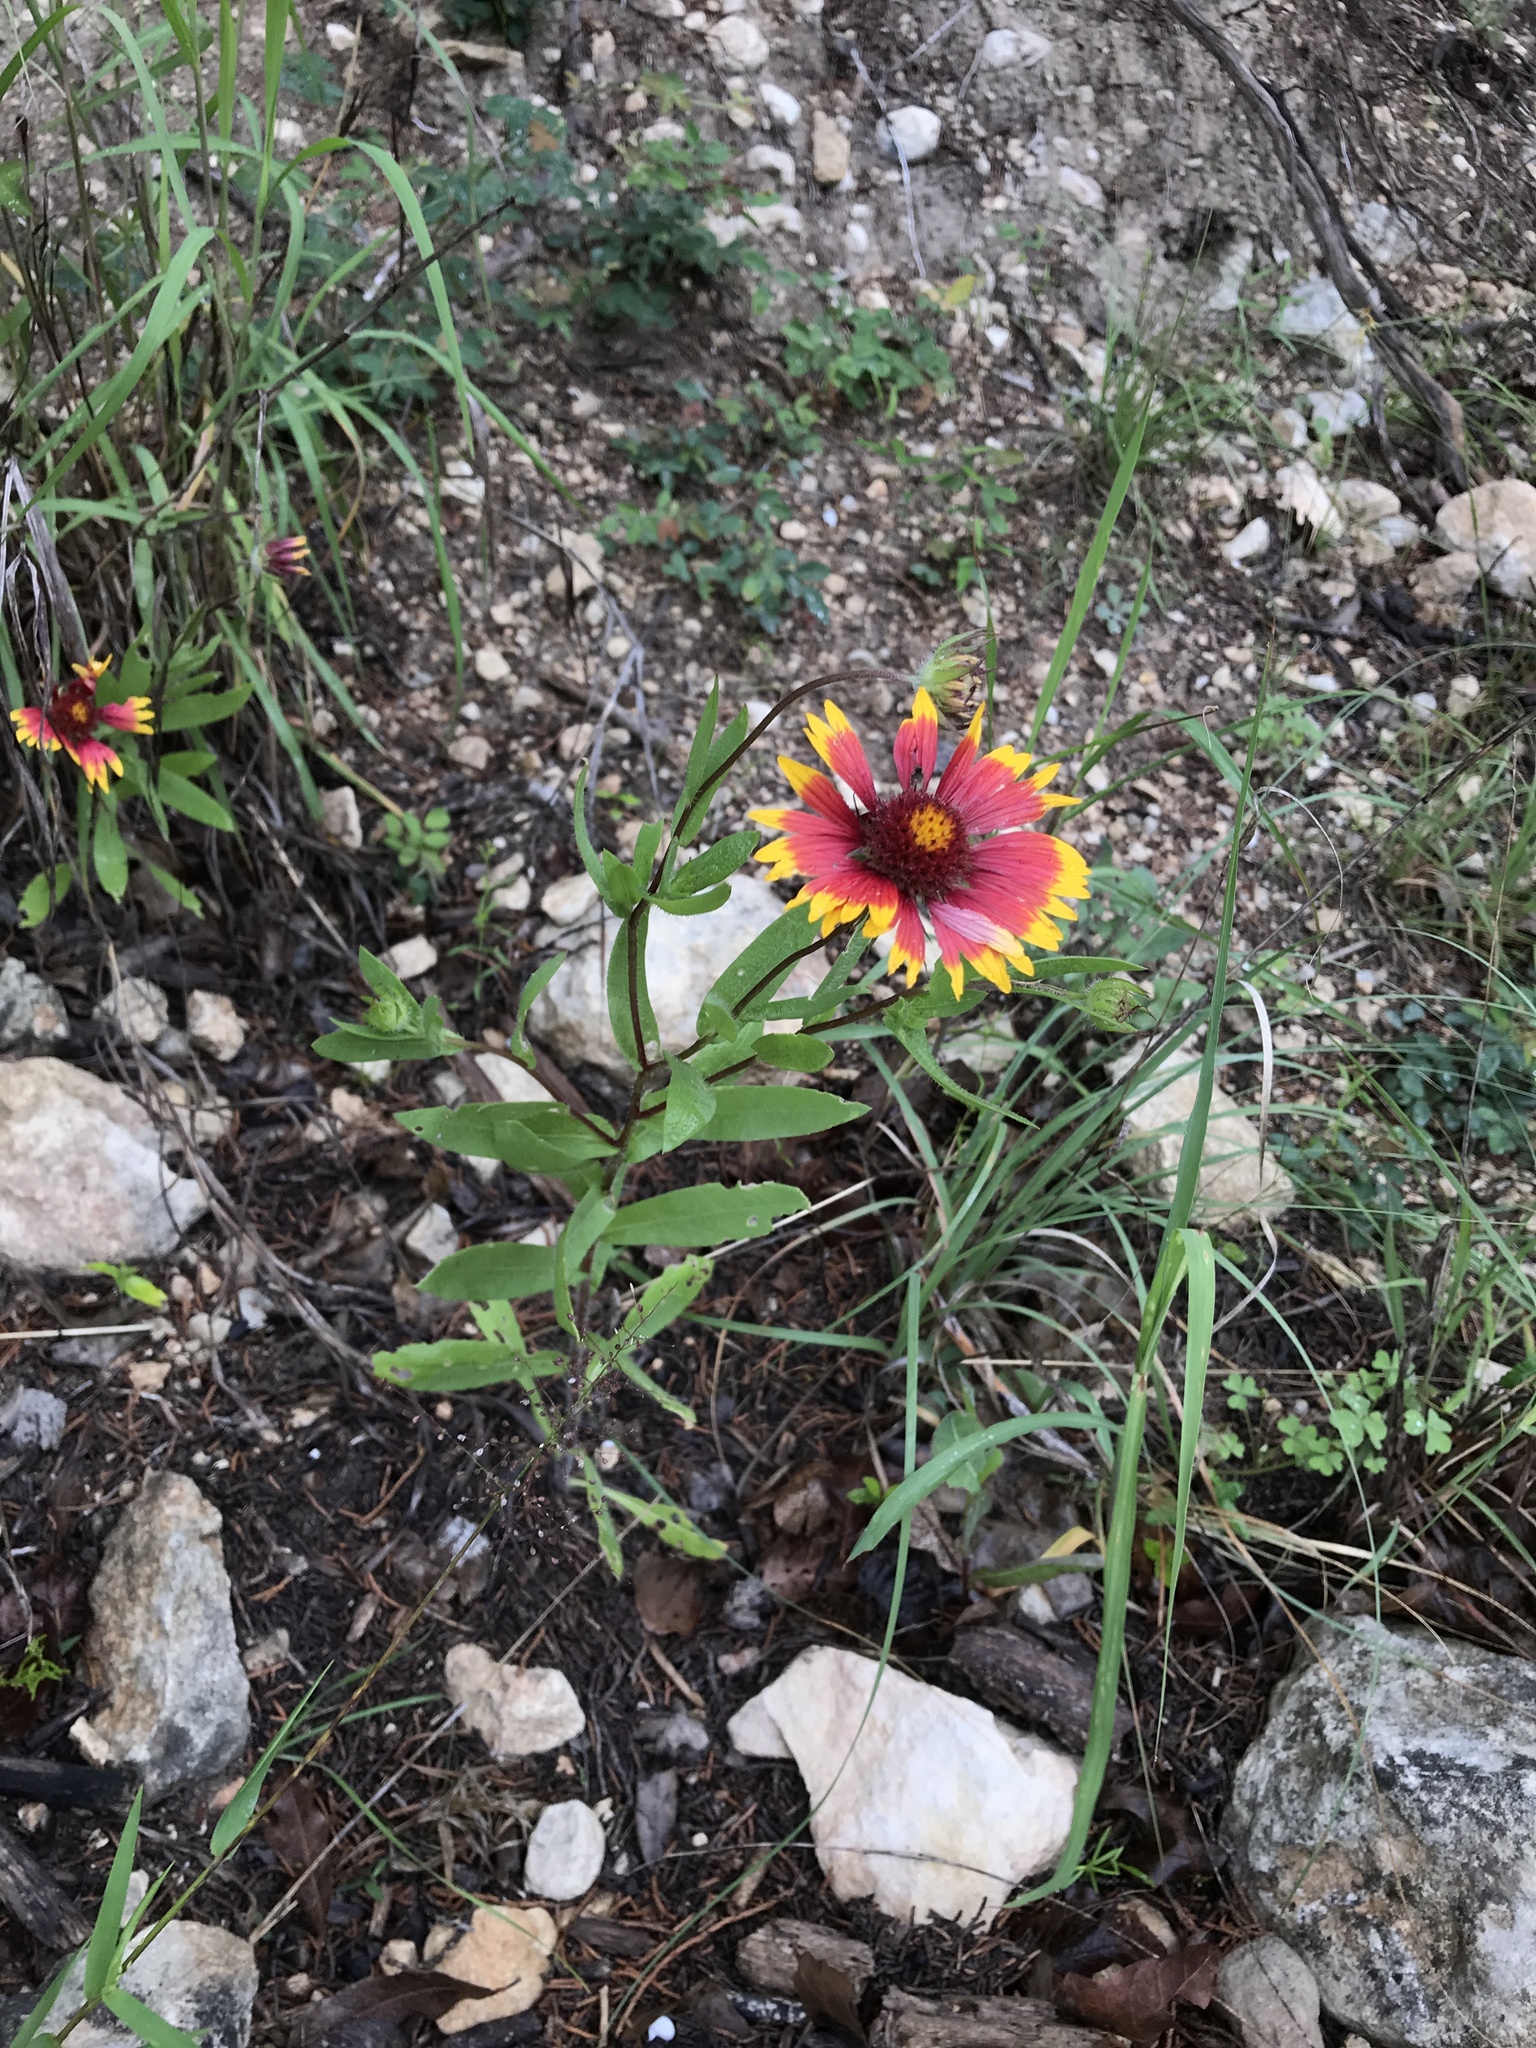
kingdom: Plantae
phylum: Tracheophyta
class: Magnoliopsida
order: Asterales
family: Asteraceae
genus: Gaillardia
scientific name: Gaillardia pulchella
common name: Firewheel
